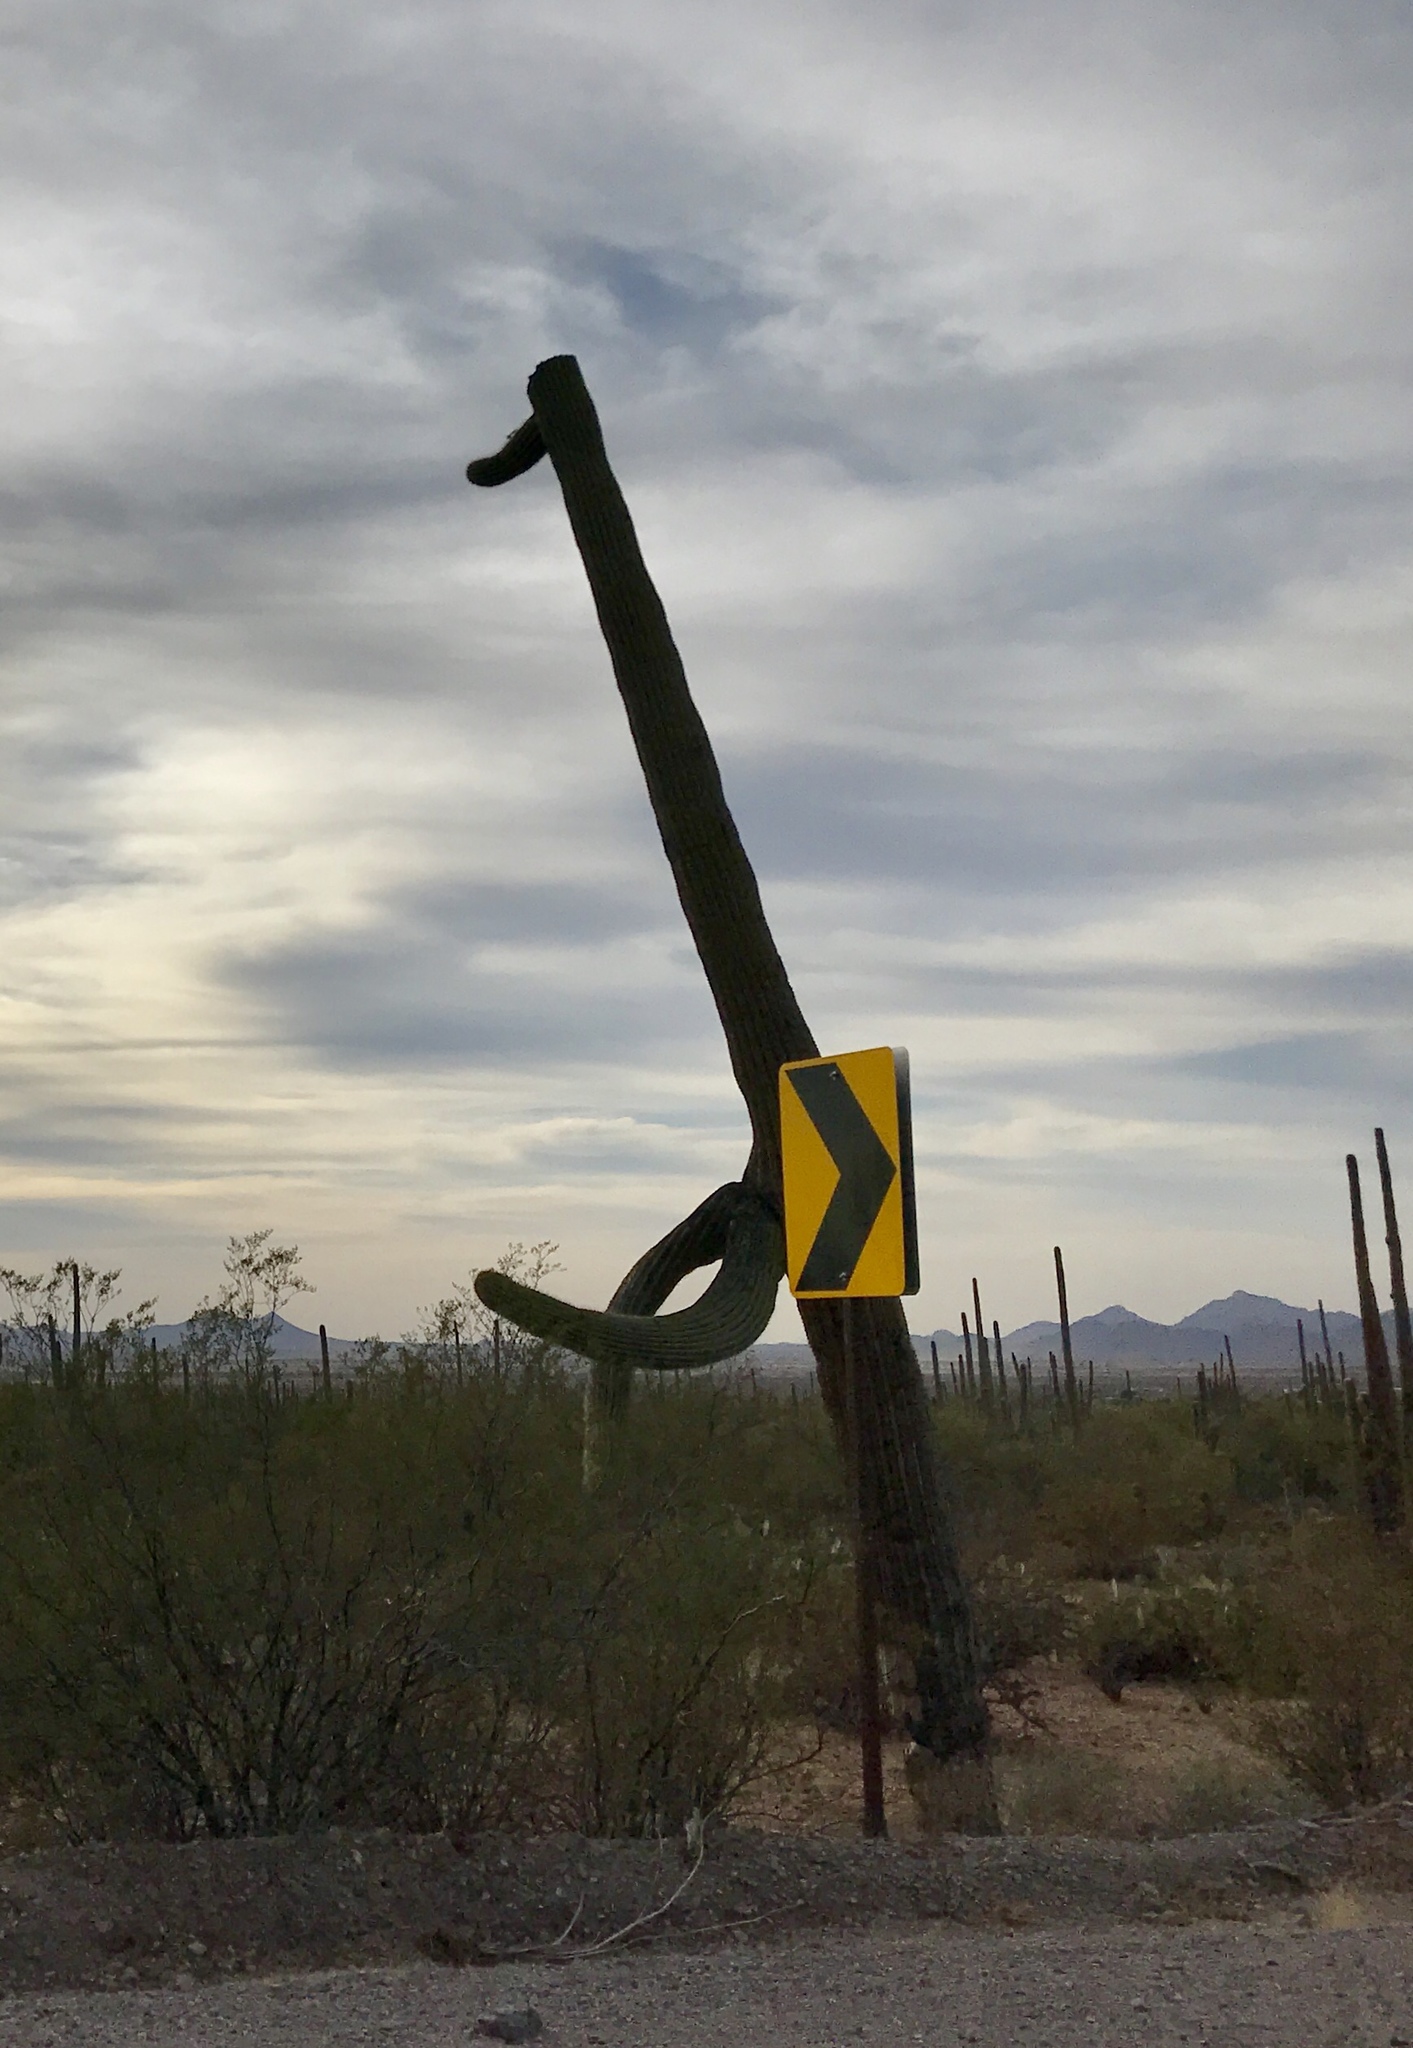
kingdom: Plantae
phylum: Tracheophyta
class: Magnoliopsida
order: Caryophyllales
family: Cactaceae
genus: Carnegiea
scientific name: Carnegiea gigantea
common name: Saguaro
